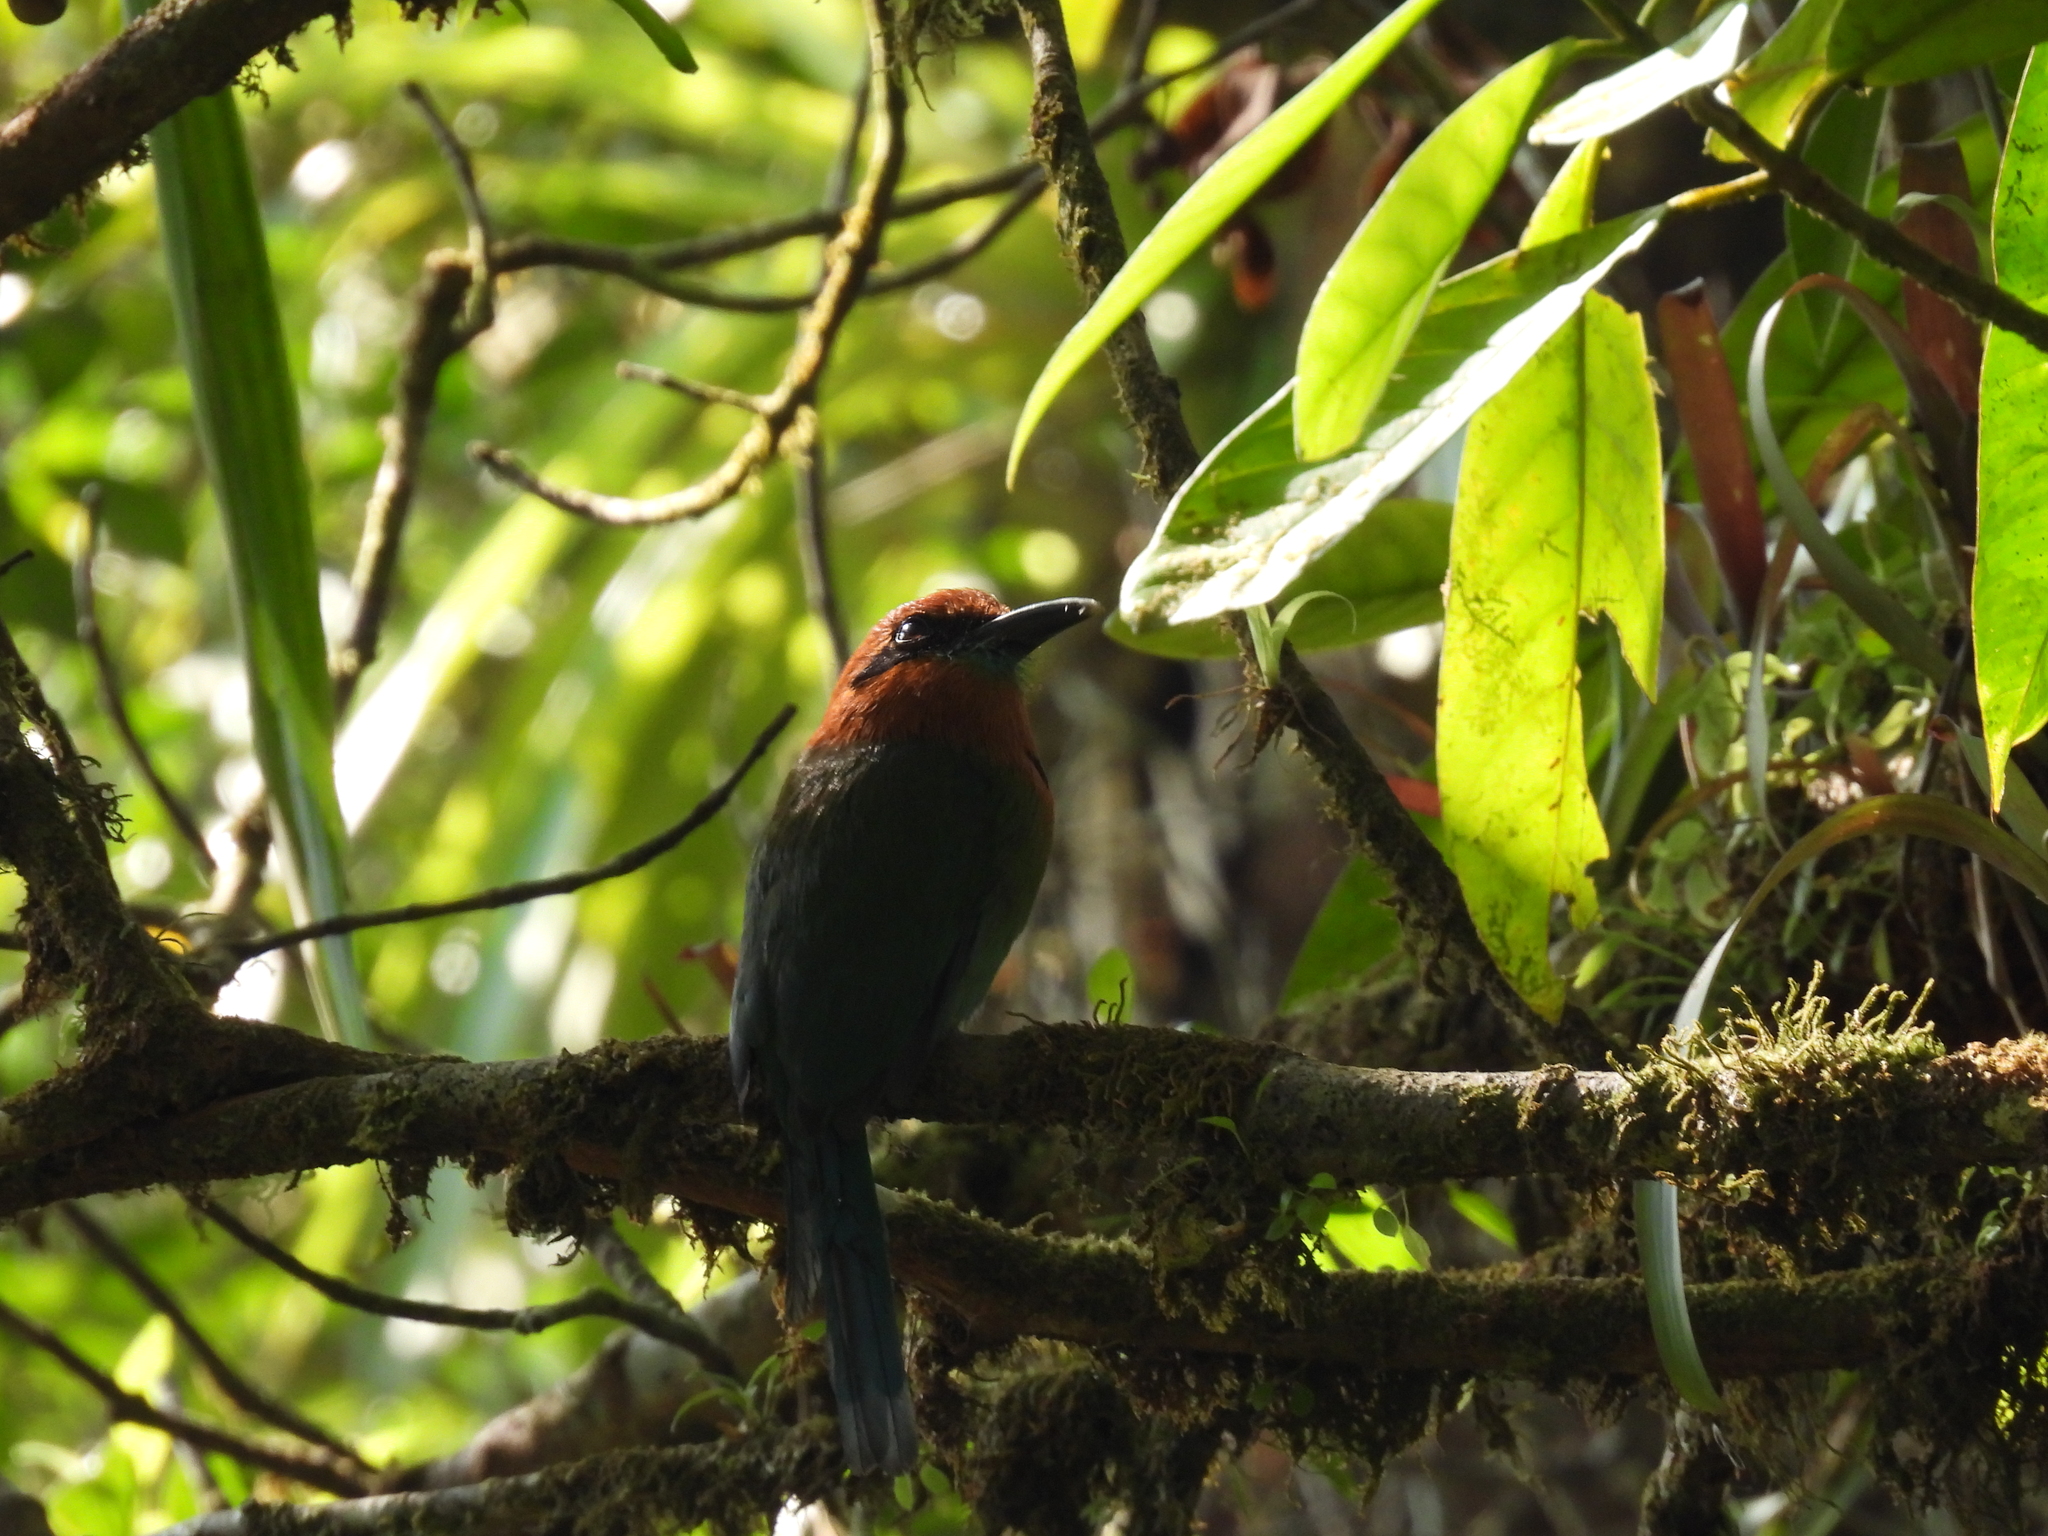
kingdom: Animalia
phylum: Chordata
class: Aves
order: Coraciiformes
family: Momotidae
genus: Electron
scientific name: Electron platyrhynchum
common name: Broad-billed motmot
